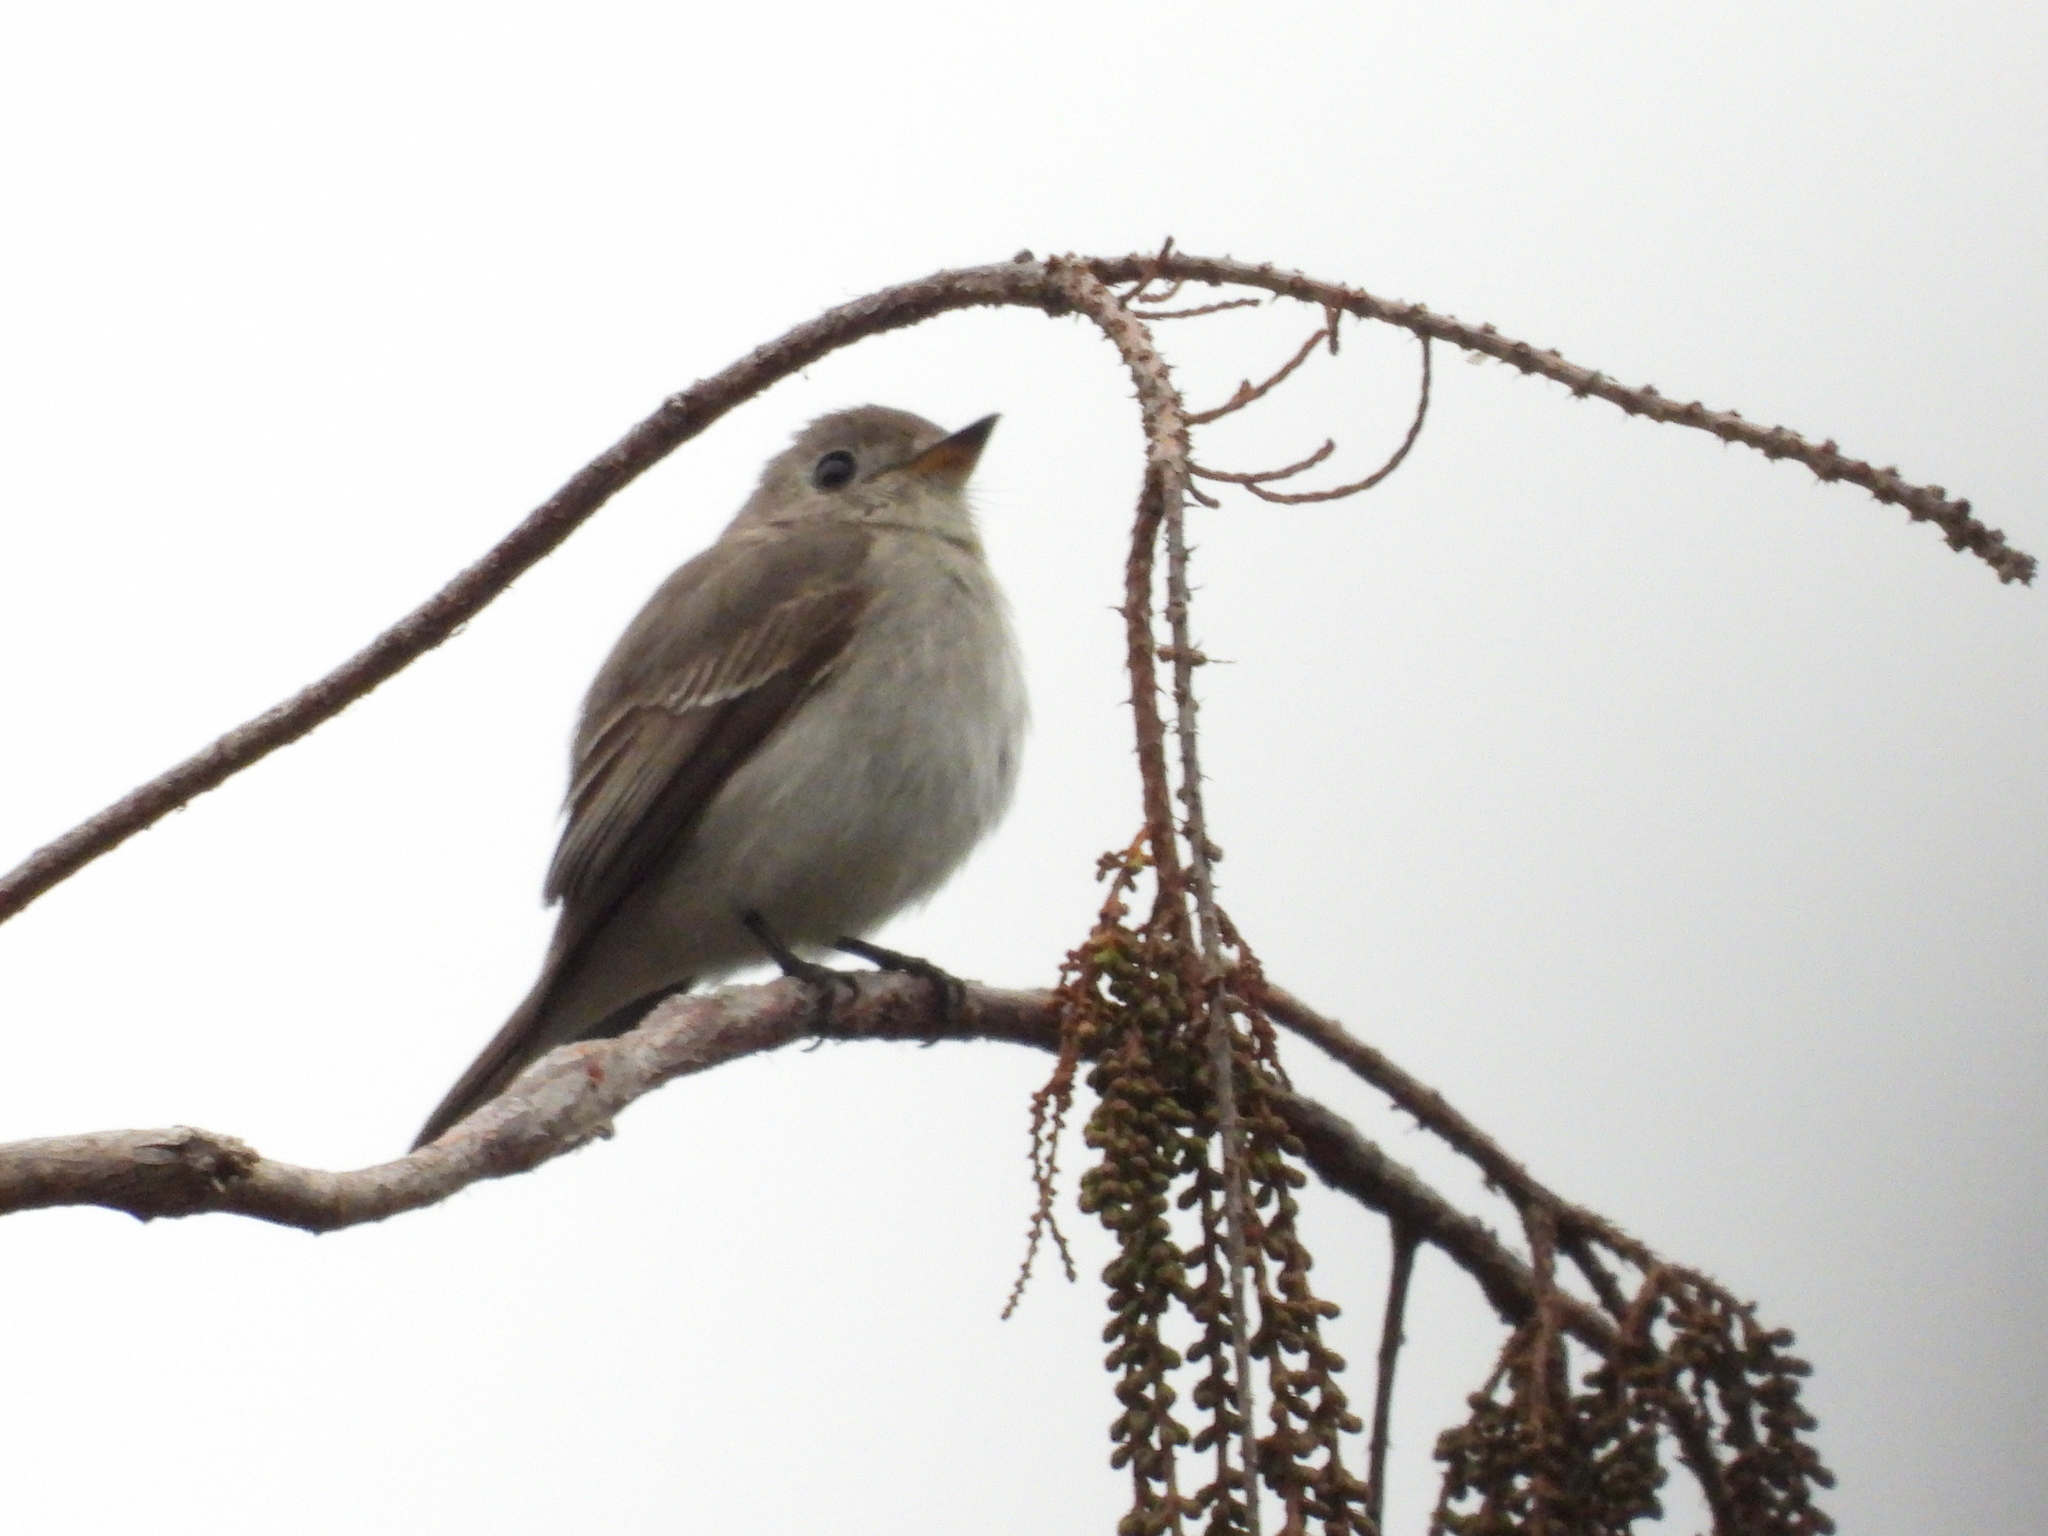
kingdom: Animalia
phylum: Chordata
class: Aves
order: Passeriformes
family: Muscicapidae
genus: Muscicapa
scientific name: Muscicapa latirostris
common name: Asian brown flycatcher
